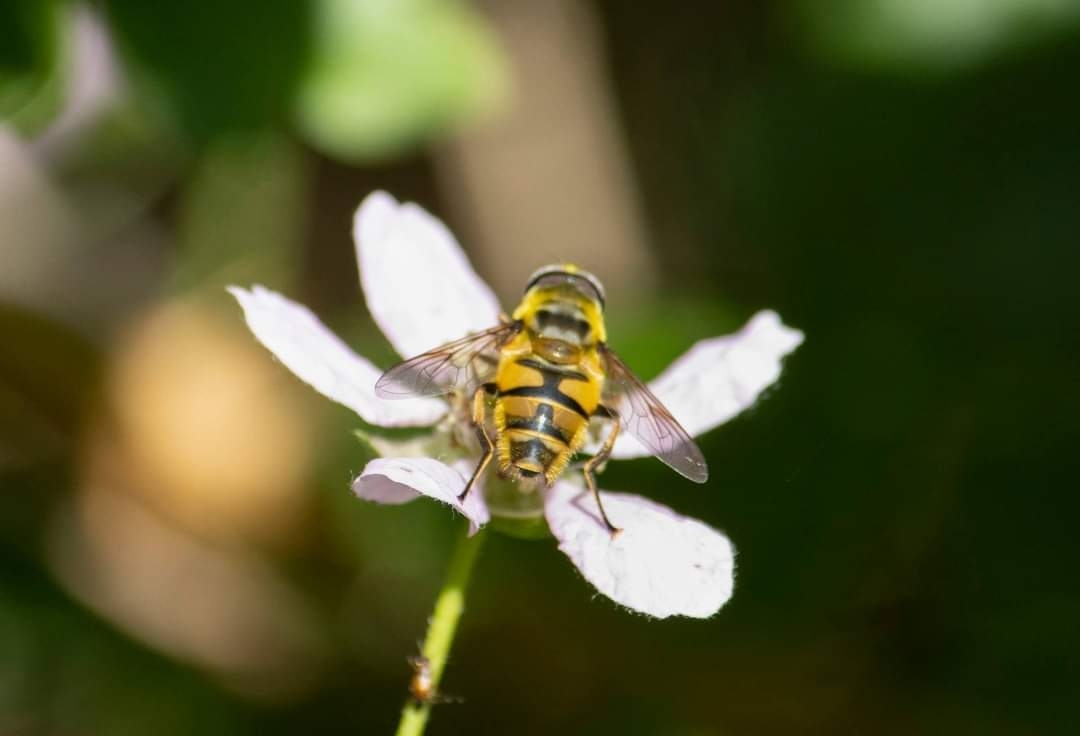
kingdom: Animalia
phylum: Arthropoda
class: Insecta
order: Diptera
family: Syrphidae
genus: Myathropa
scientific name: Myathropa florea
